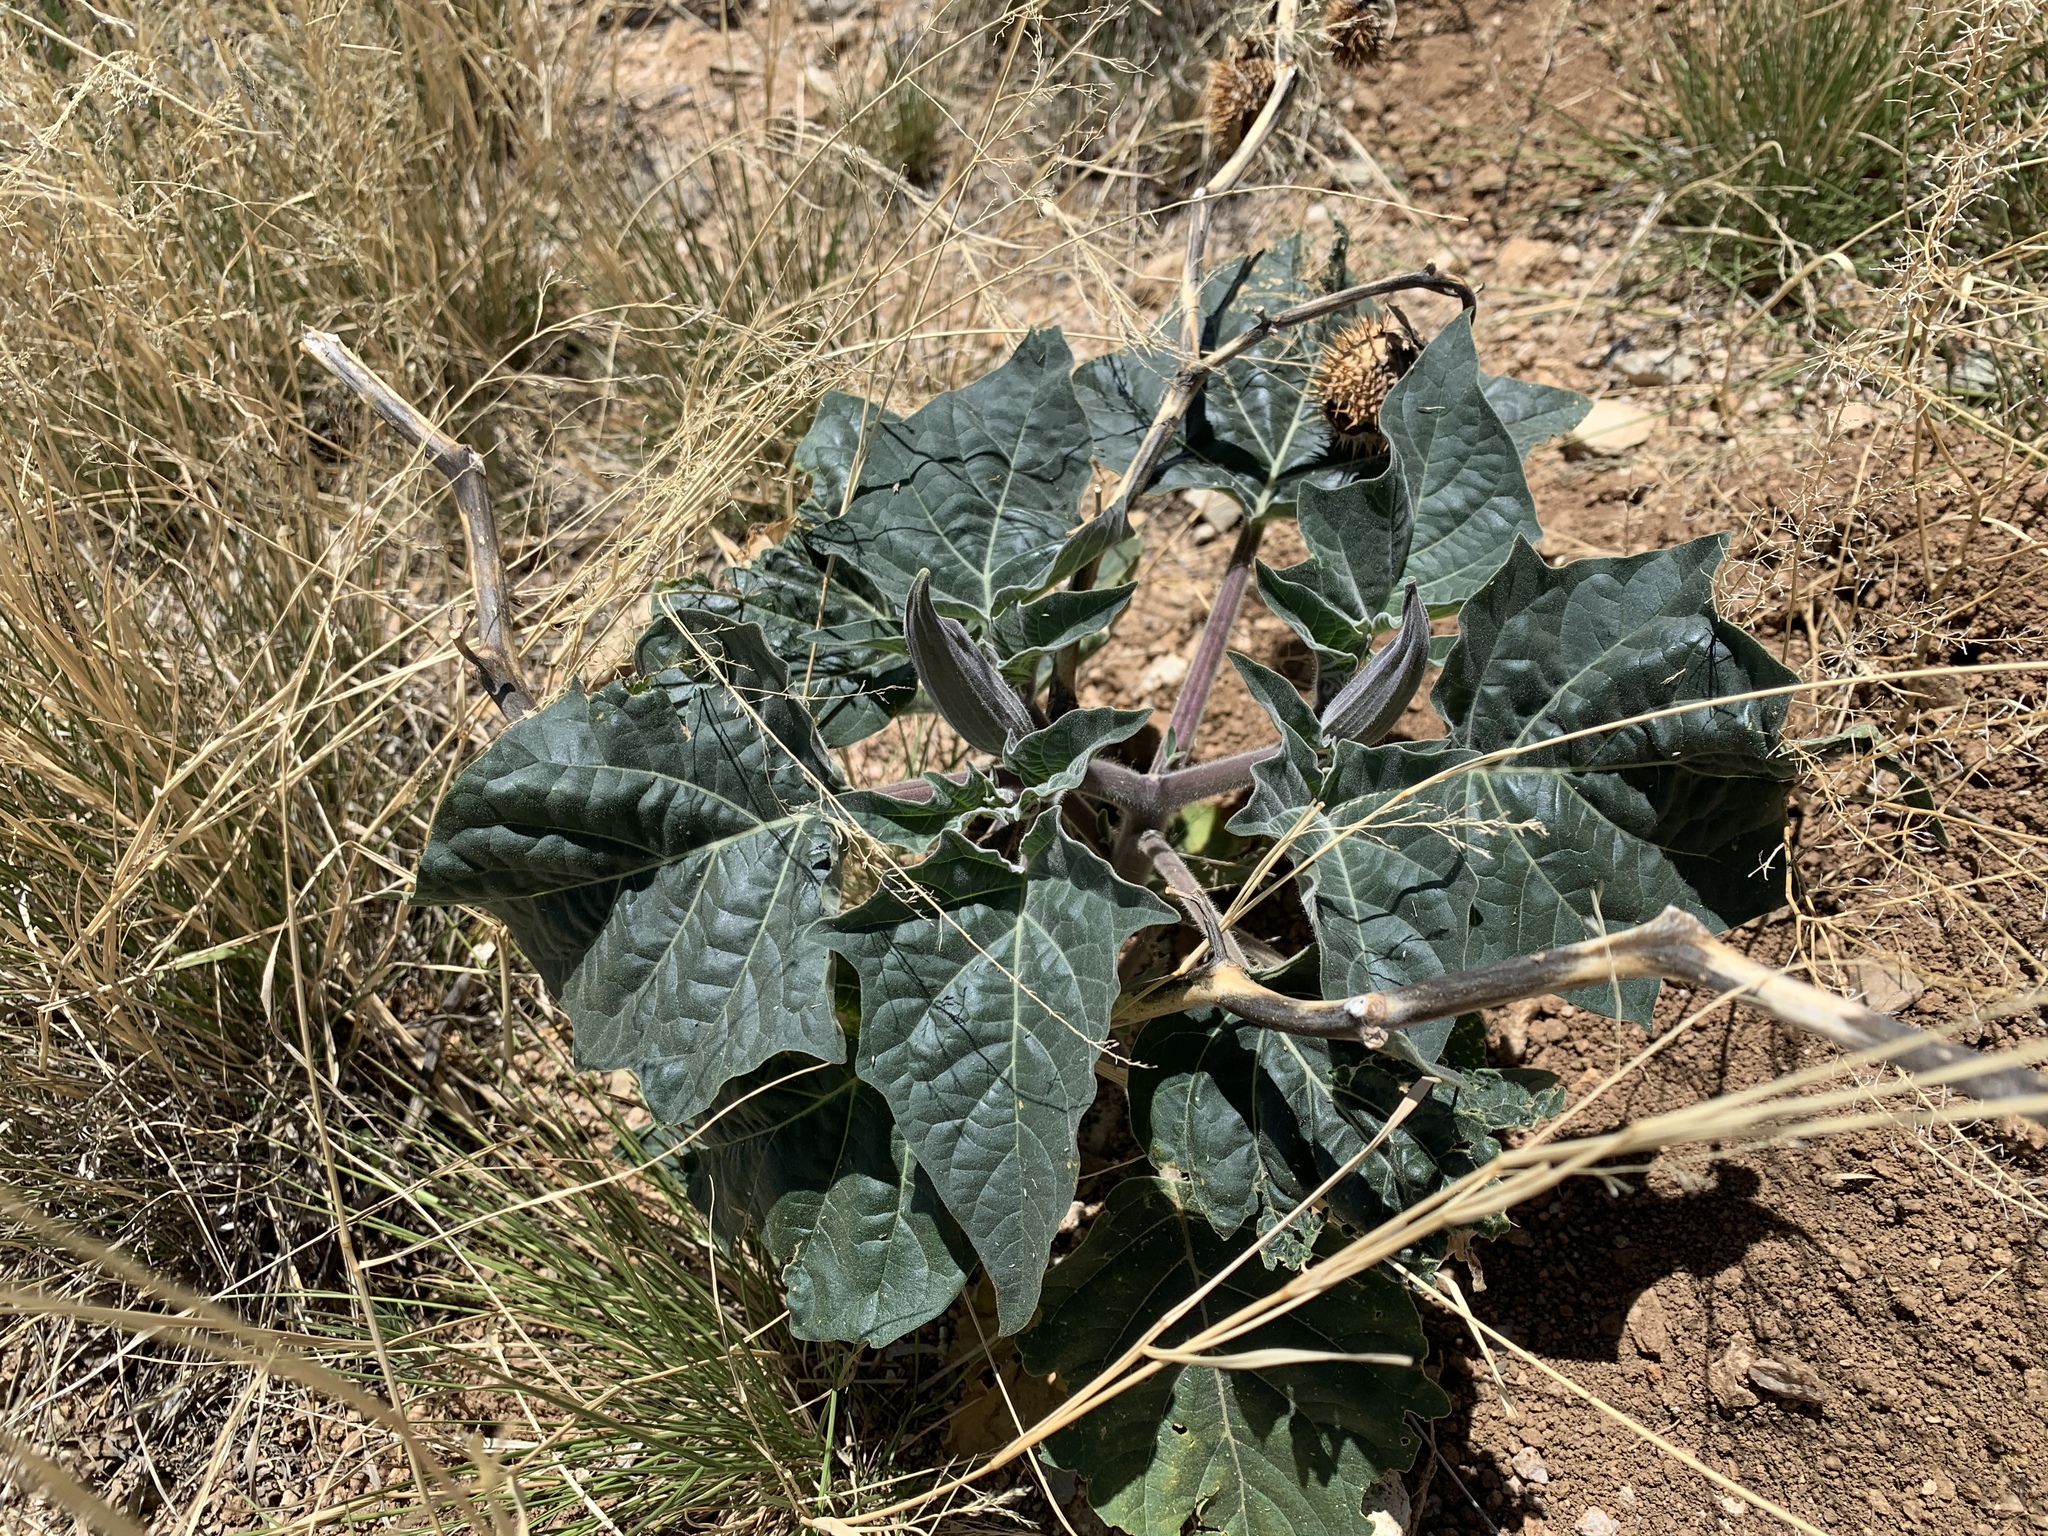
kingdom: Plantae
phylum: Tracheophyta
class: Magnoliopsida
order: Solanales
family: Solanaceae
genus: Datura
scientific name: Datura wrightii
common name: Sacred thorn-apple
